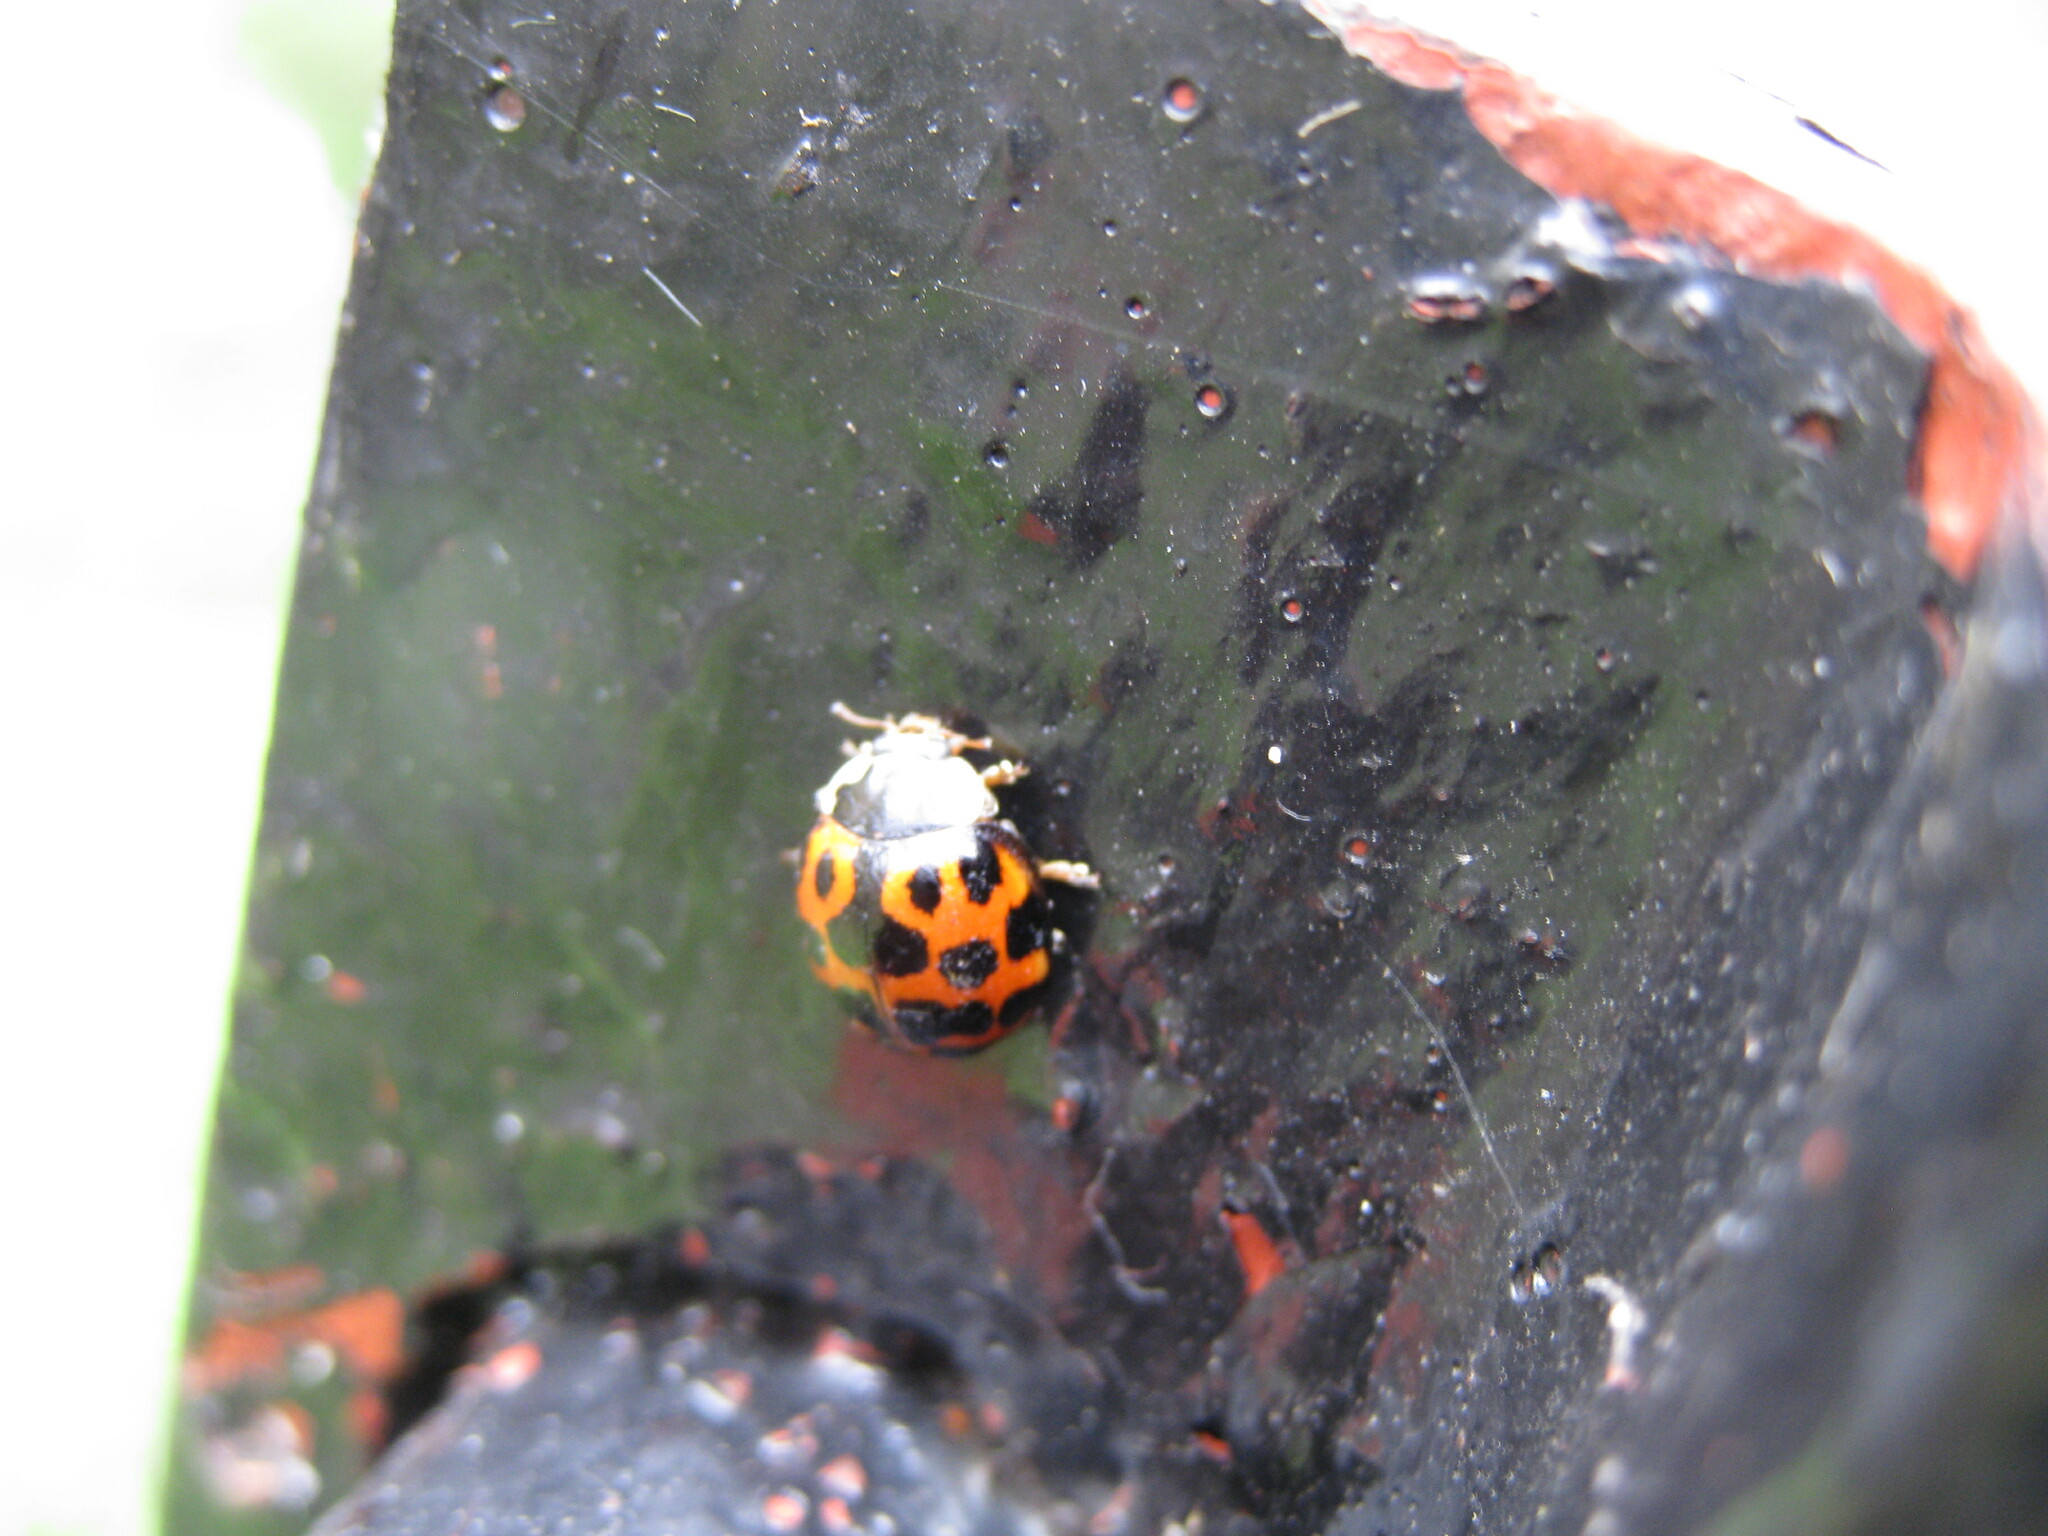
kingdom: Animalia
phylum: Arthropoda
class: Insecta
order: Coleoptera
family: Coccinellidae
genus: Harmonia
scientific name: Harmonia axyridis
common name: Harlequin ladybird
